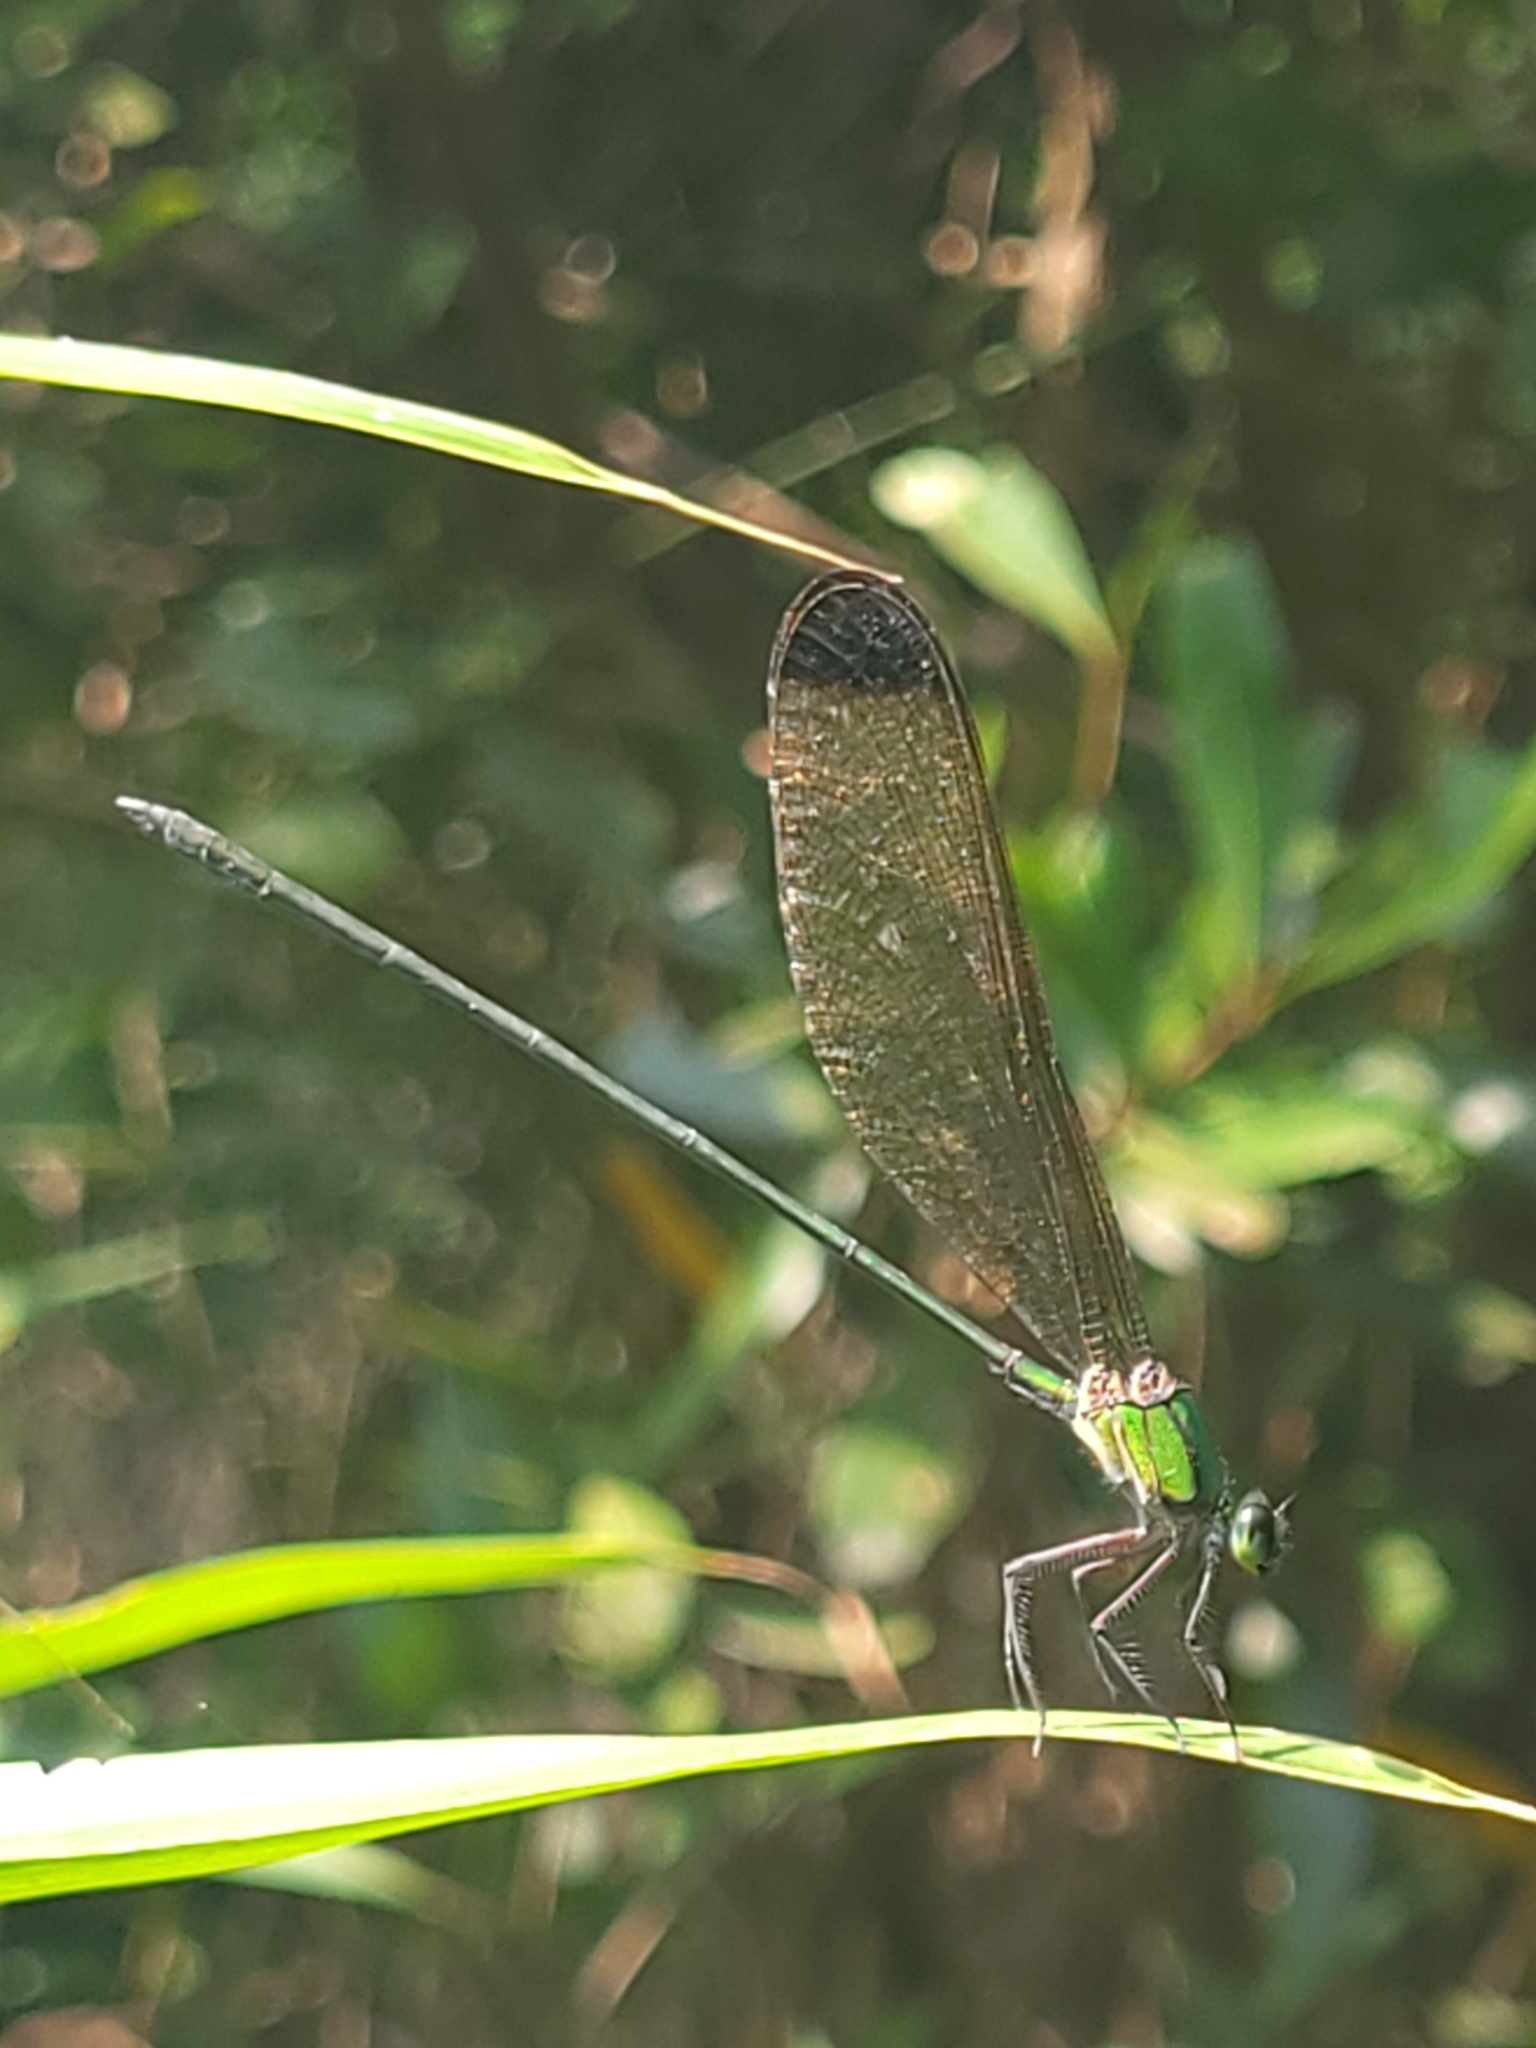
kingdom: Animalia
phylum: Arthropoda
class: Insecta
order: Odonata
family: Calopterygidae
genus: Vestalis
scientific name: Vestalis apicalis
